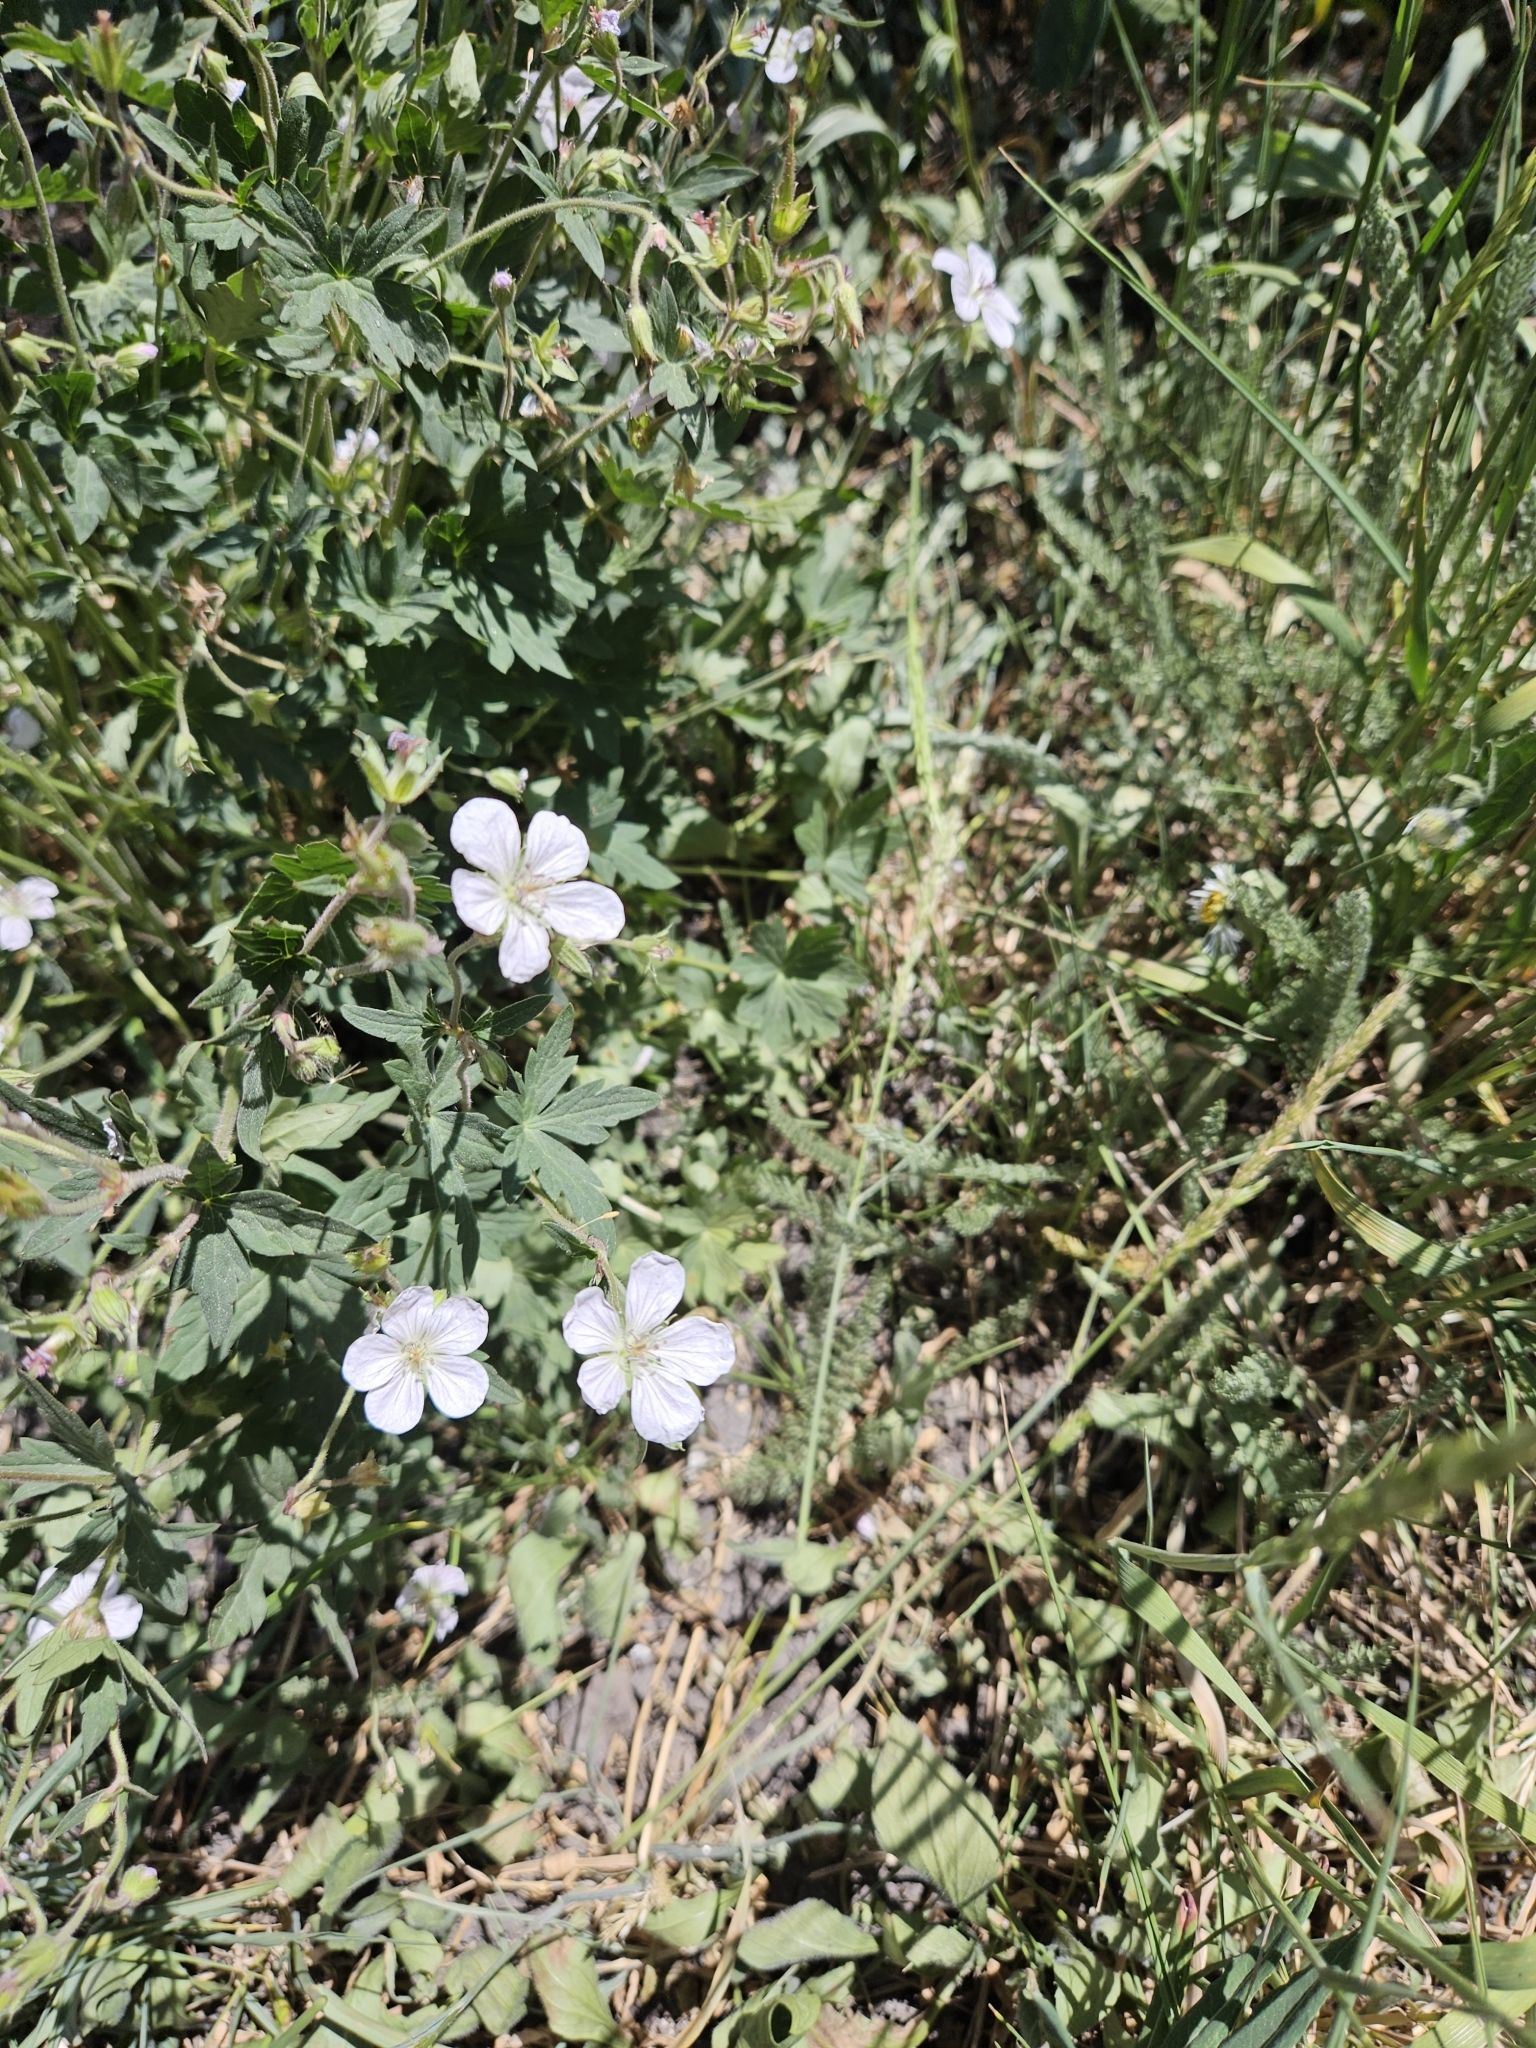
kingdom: Plantae
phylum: Tracheophyta
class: Magnoliopsida
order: Geraniales
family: Geraniaceae
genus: Geranium
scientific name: Geranium richardsonii
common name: Richardson's crane's-bill
